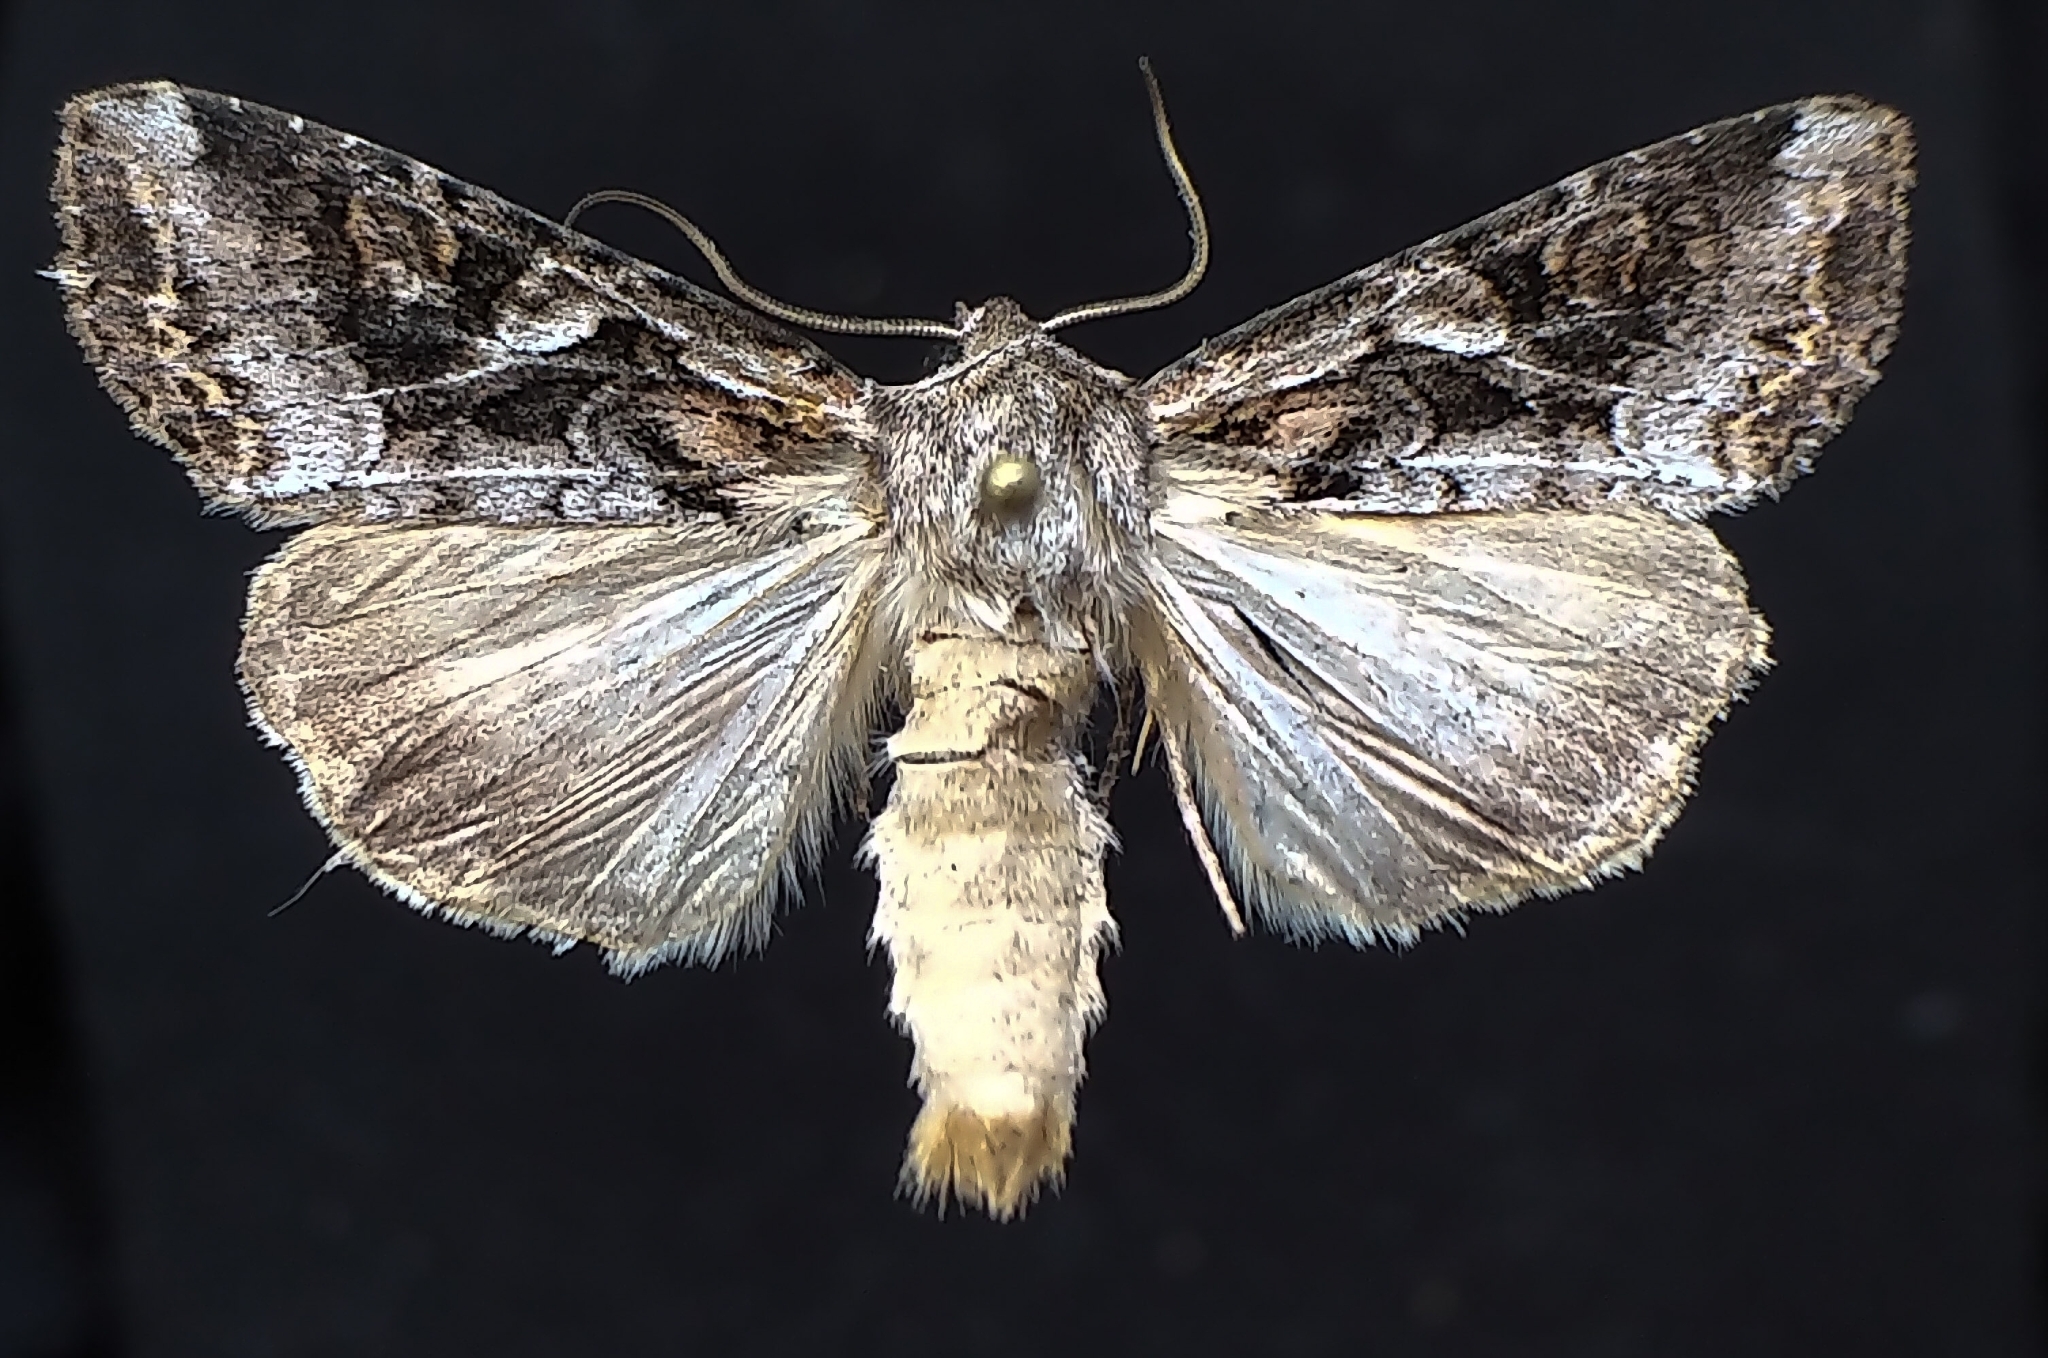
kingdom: Animalia
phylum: Arthropoda
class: Insecta
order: Lepidoptera
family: Noctuidae
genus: Trichordestra
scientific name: Trichordestra liquida
